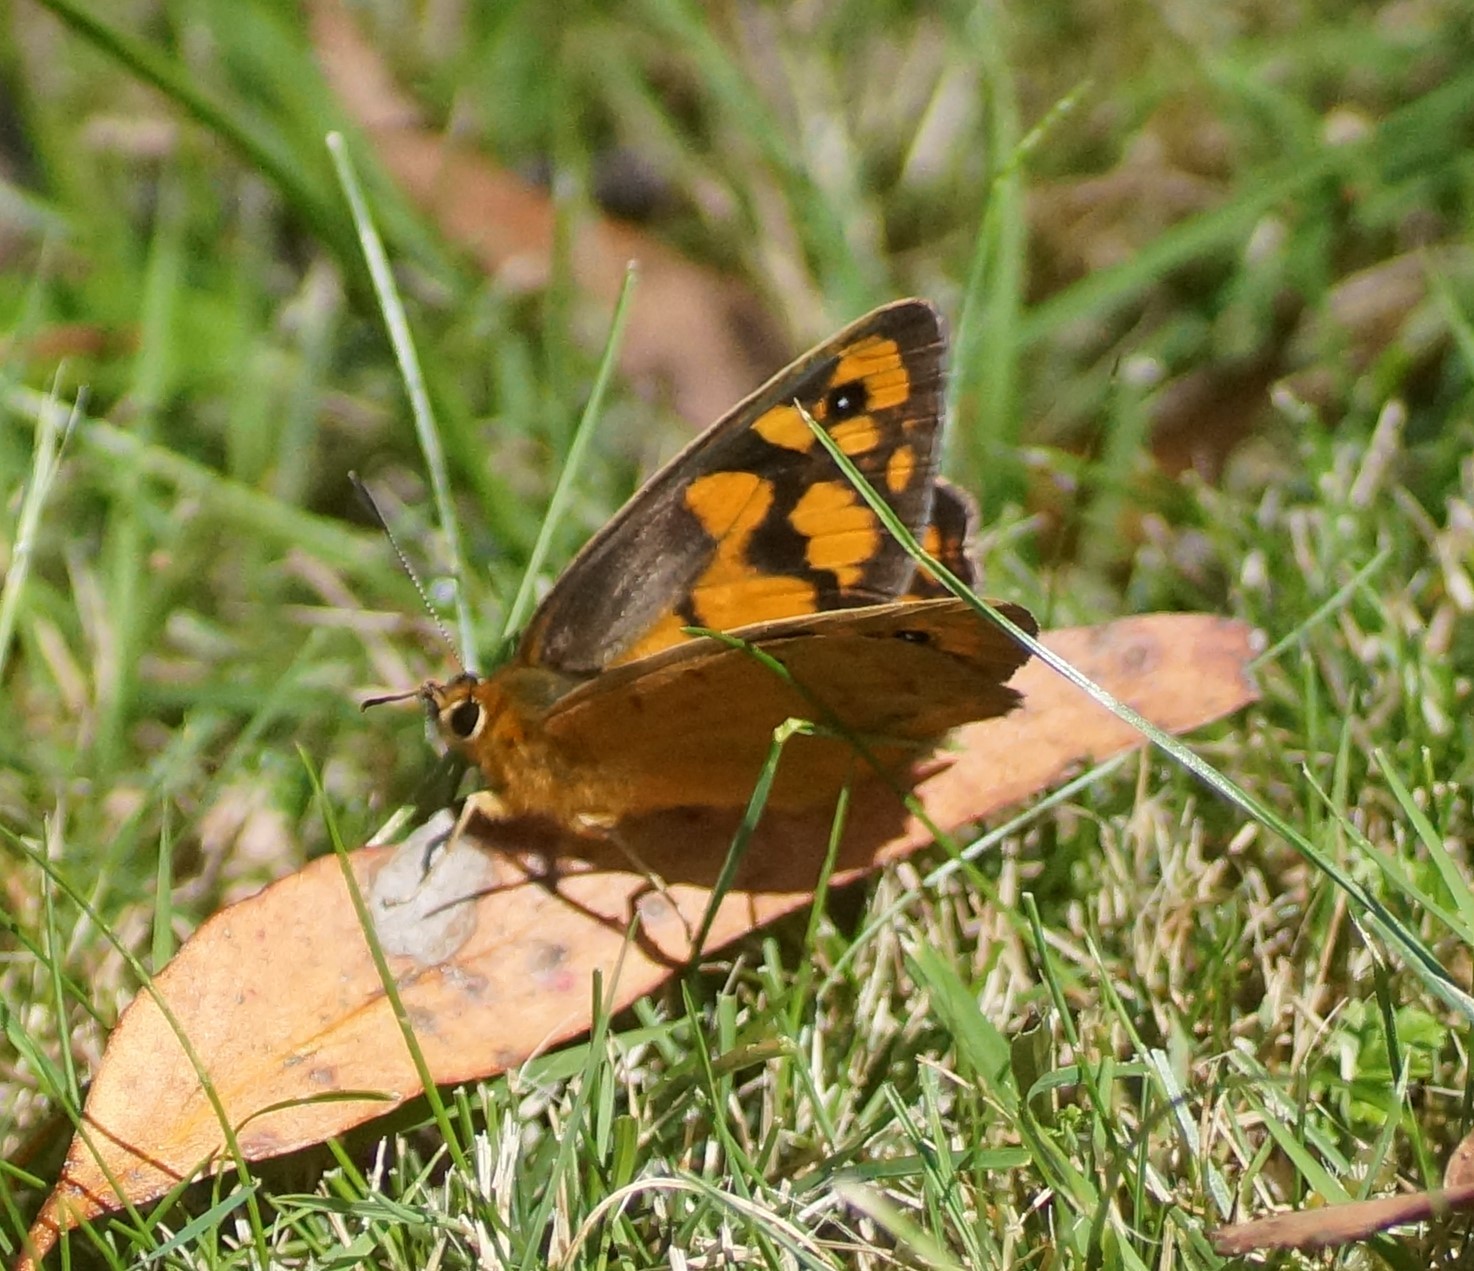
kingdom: Animalia
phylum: Arthropoda
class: Insecta
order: Lepidoptera
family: Nymphalidae
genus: Heteronympha
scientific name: Heteronympha penelope
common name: Shouldered brown
